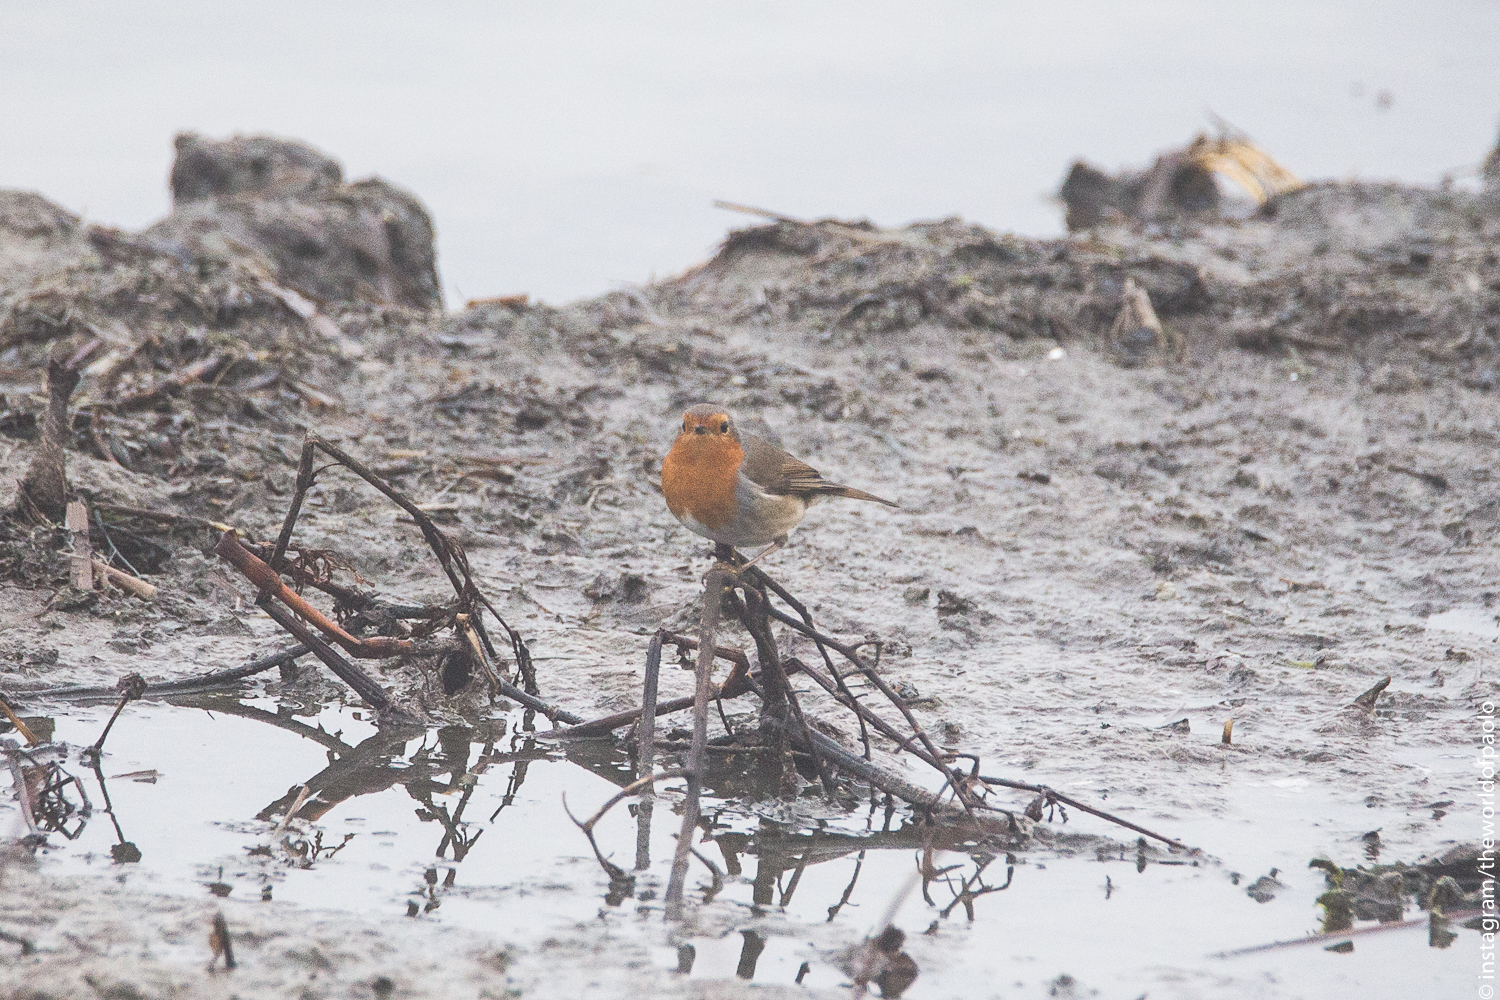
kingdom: Animalia
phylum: Chordata
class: Aves
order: Passeriformes
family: Muscicapidae
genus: Erithacus
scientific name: Erithacus rubecula
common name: European robin
